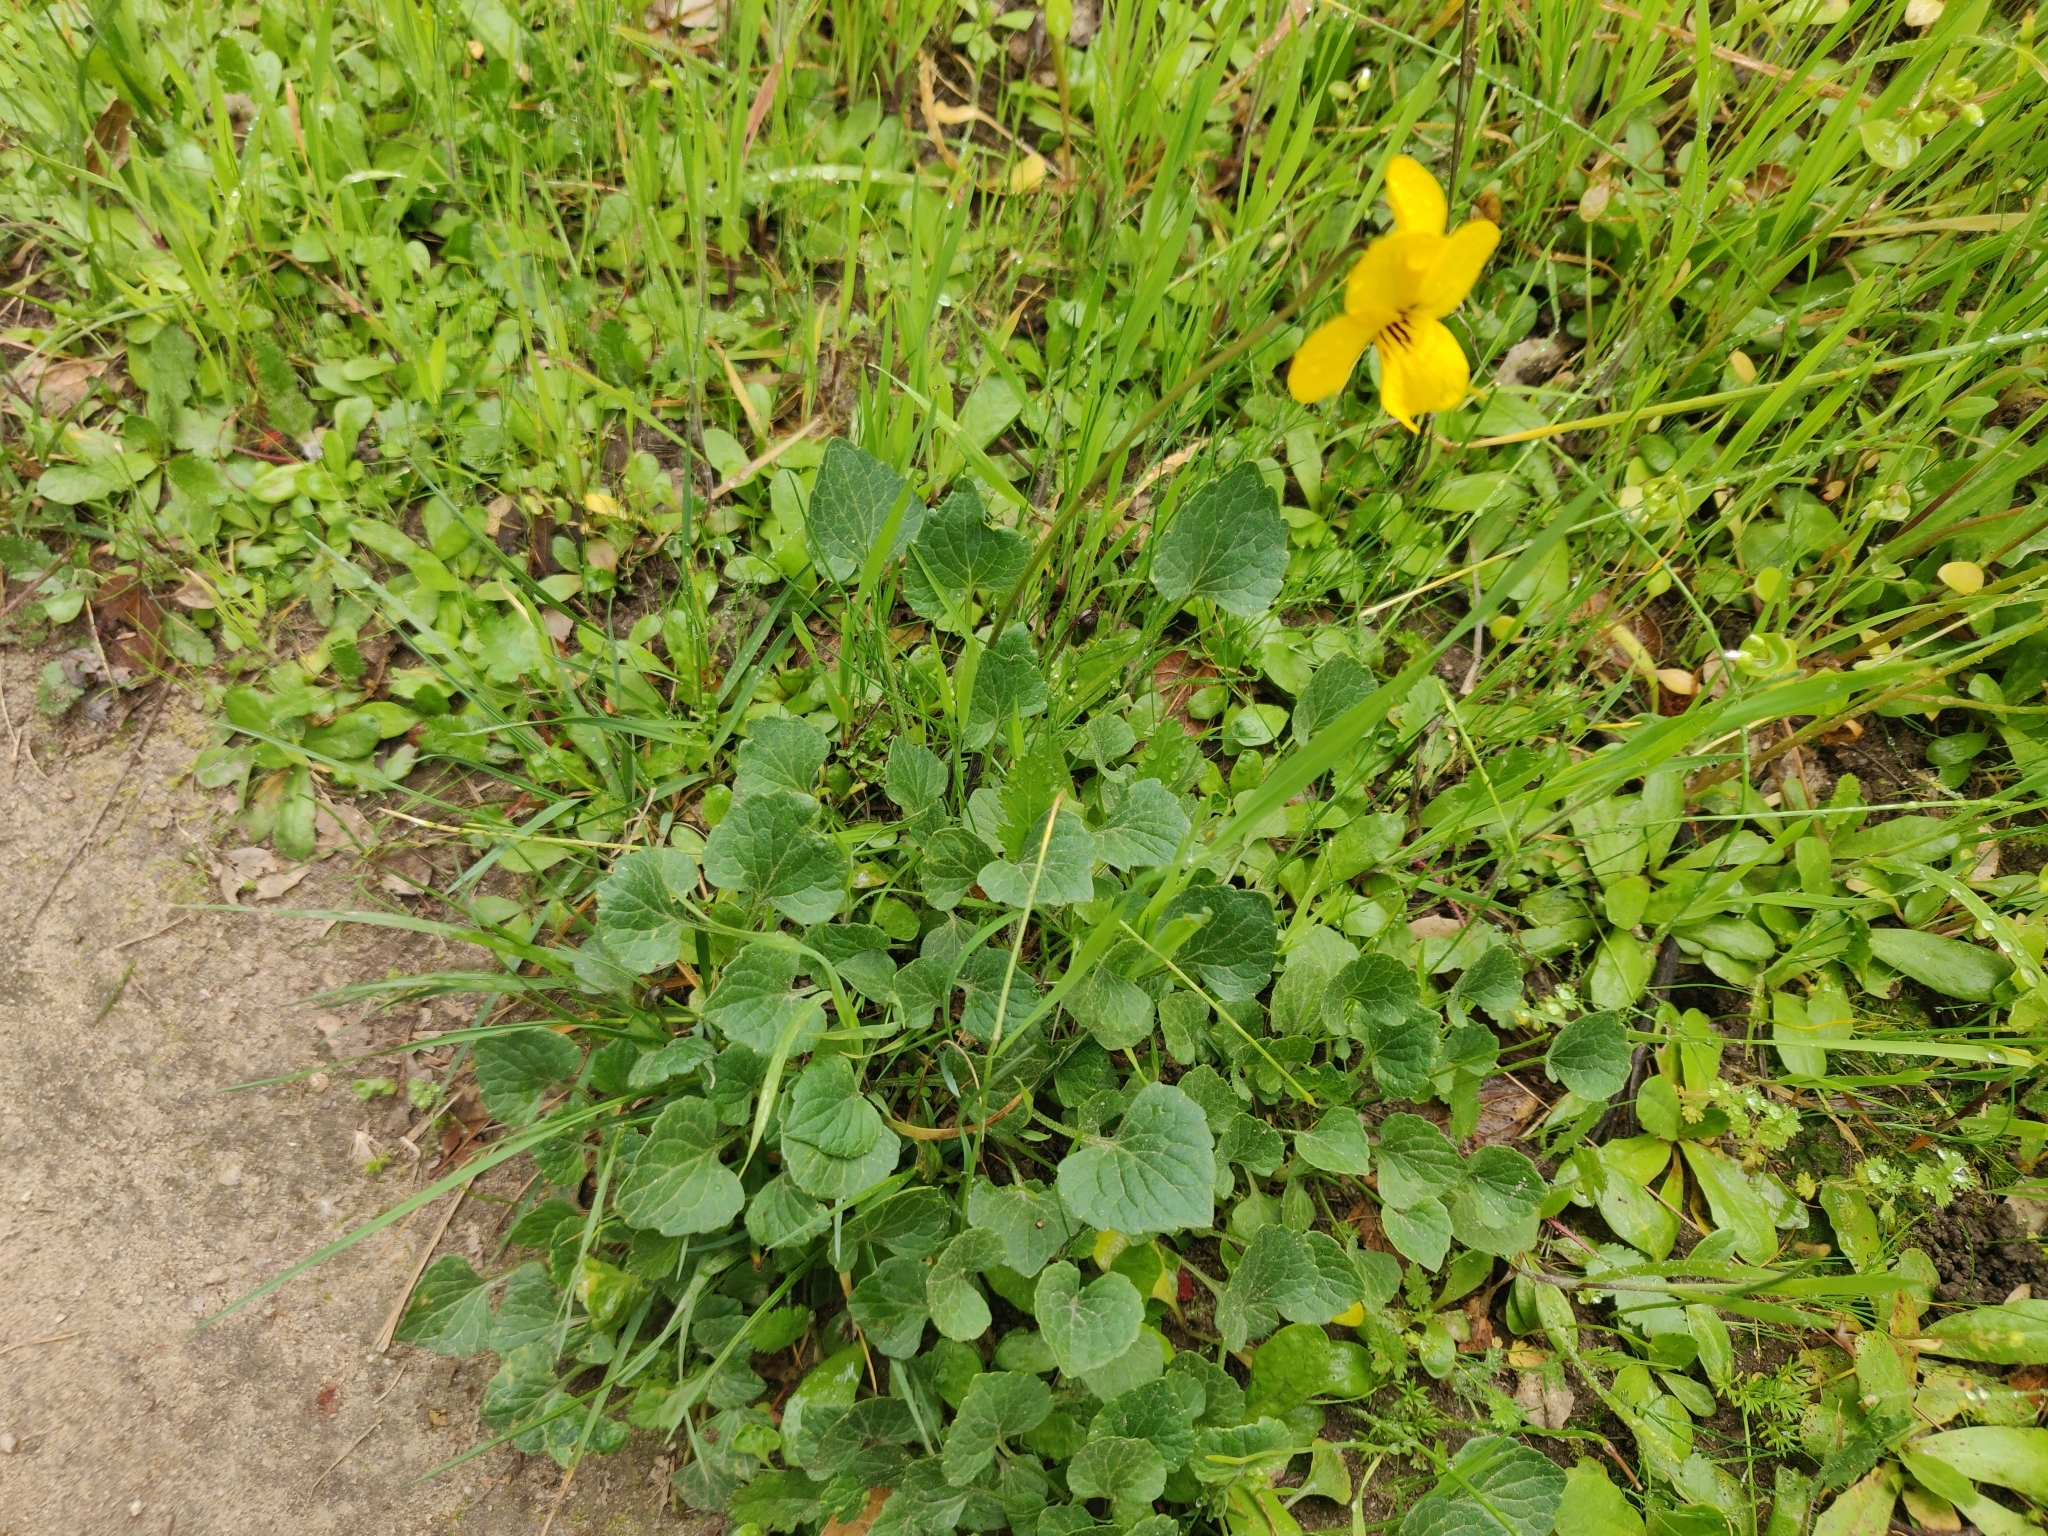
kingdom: Plantae
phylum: Tracheophyta
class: Magnoliopsida
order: Malpighiales
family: Violaceae
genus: Viola
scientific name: Viola pedunculata
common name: California golden violet
